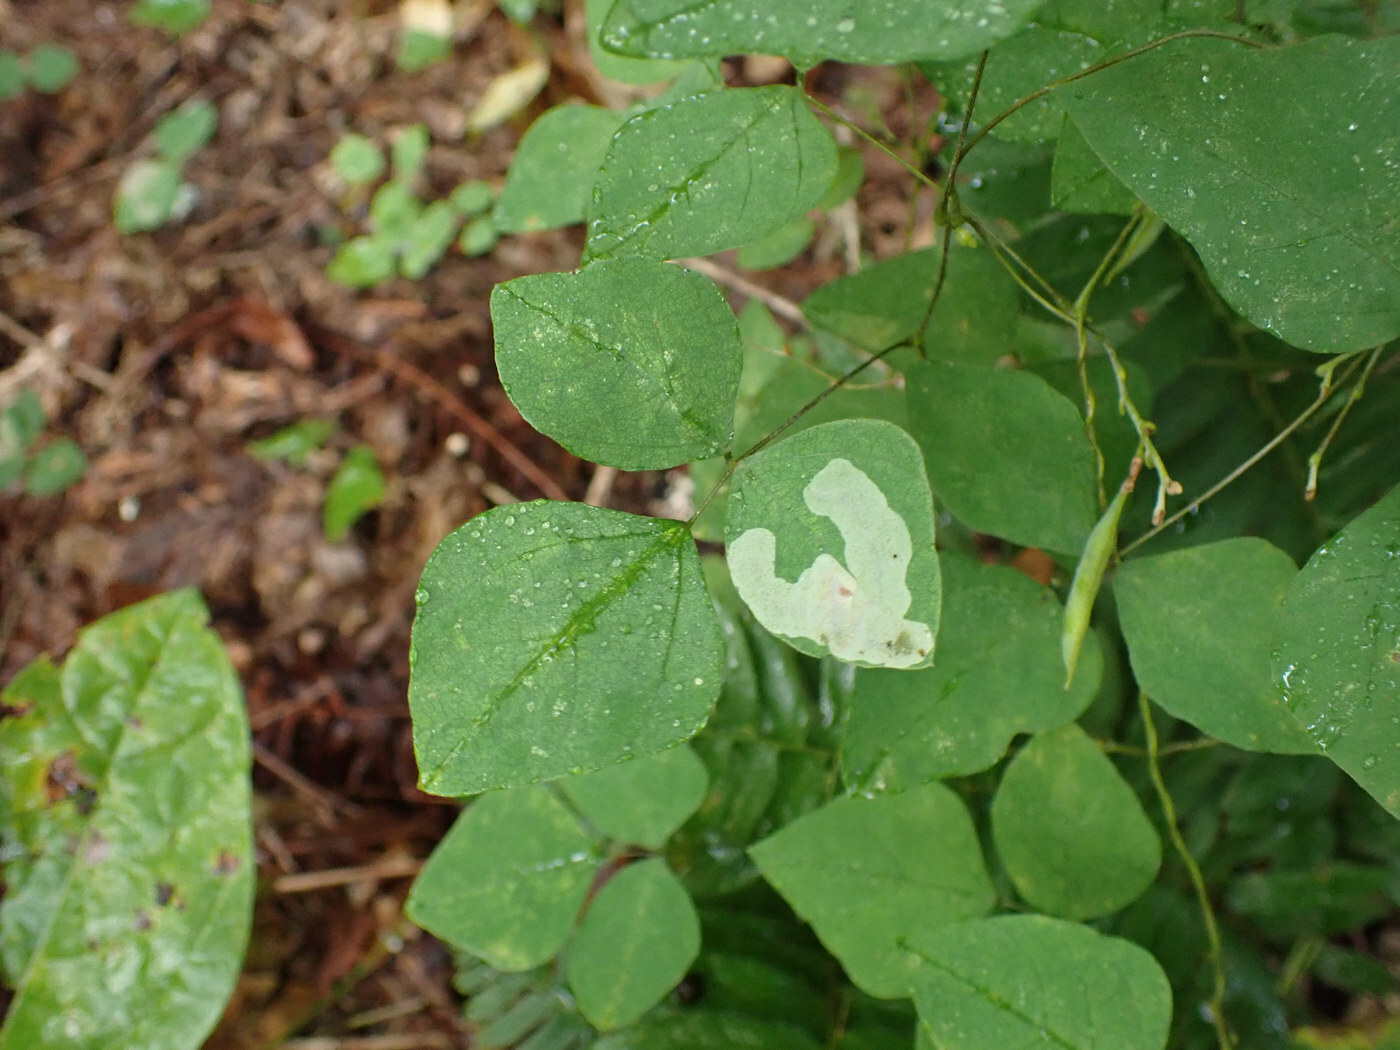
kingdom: Animalia
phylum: Arthropoda
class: Insecta
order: Lepidoptera
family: Gracillariidae
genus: Leucanthiza
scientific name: Leucanthiza amphicarpeaefoliella
